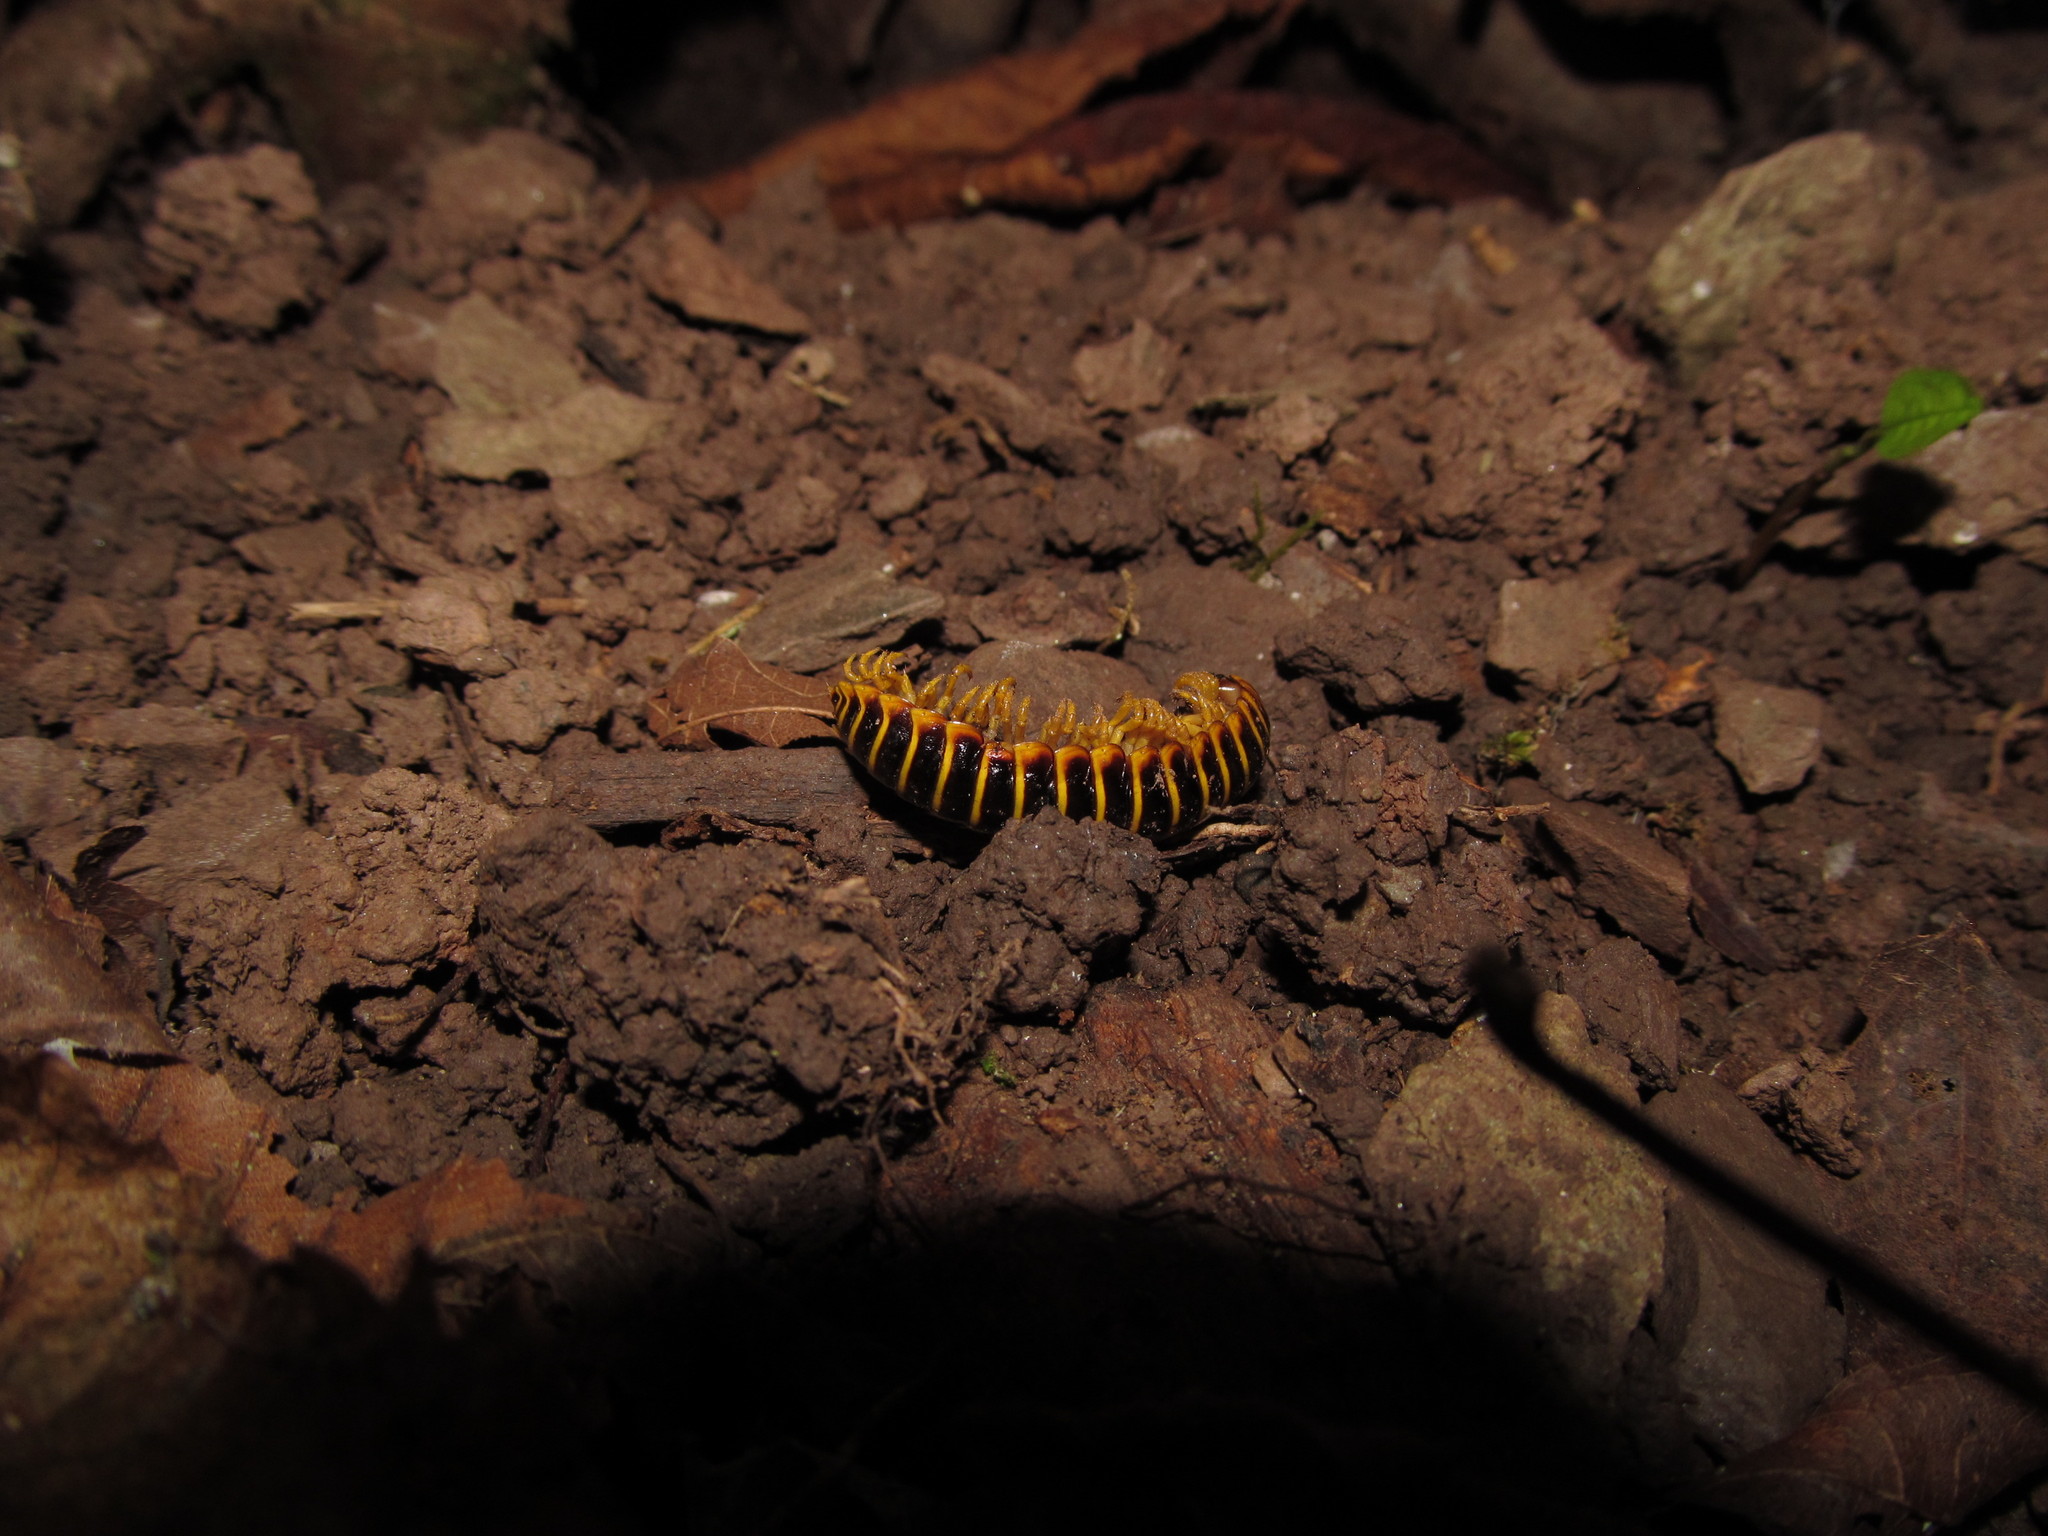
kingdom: Animalia
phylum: Arthropoda
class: Diplopoda
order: Polydesmida
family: Xystodesmidae
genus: Apheloria
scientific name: Apheloria virginiensis
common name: Black-and-gold flat millipede
